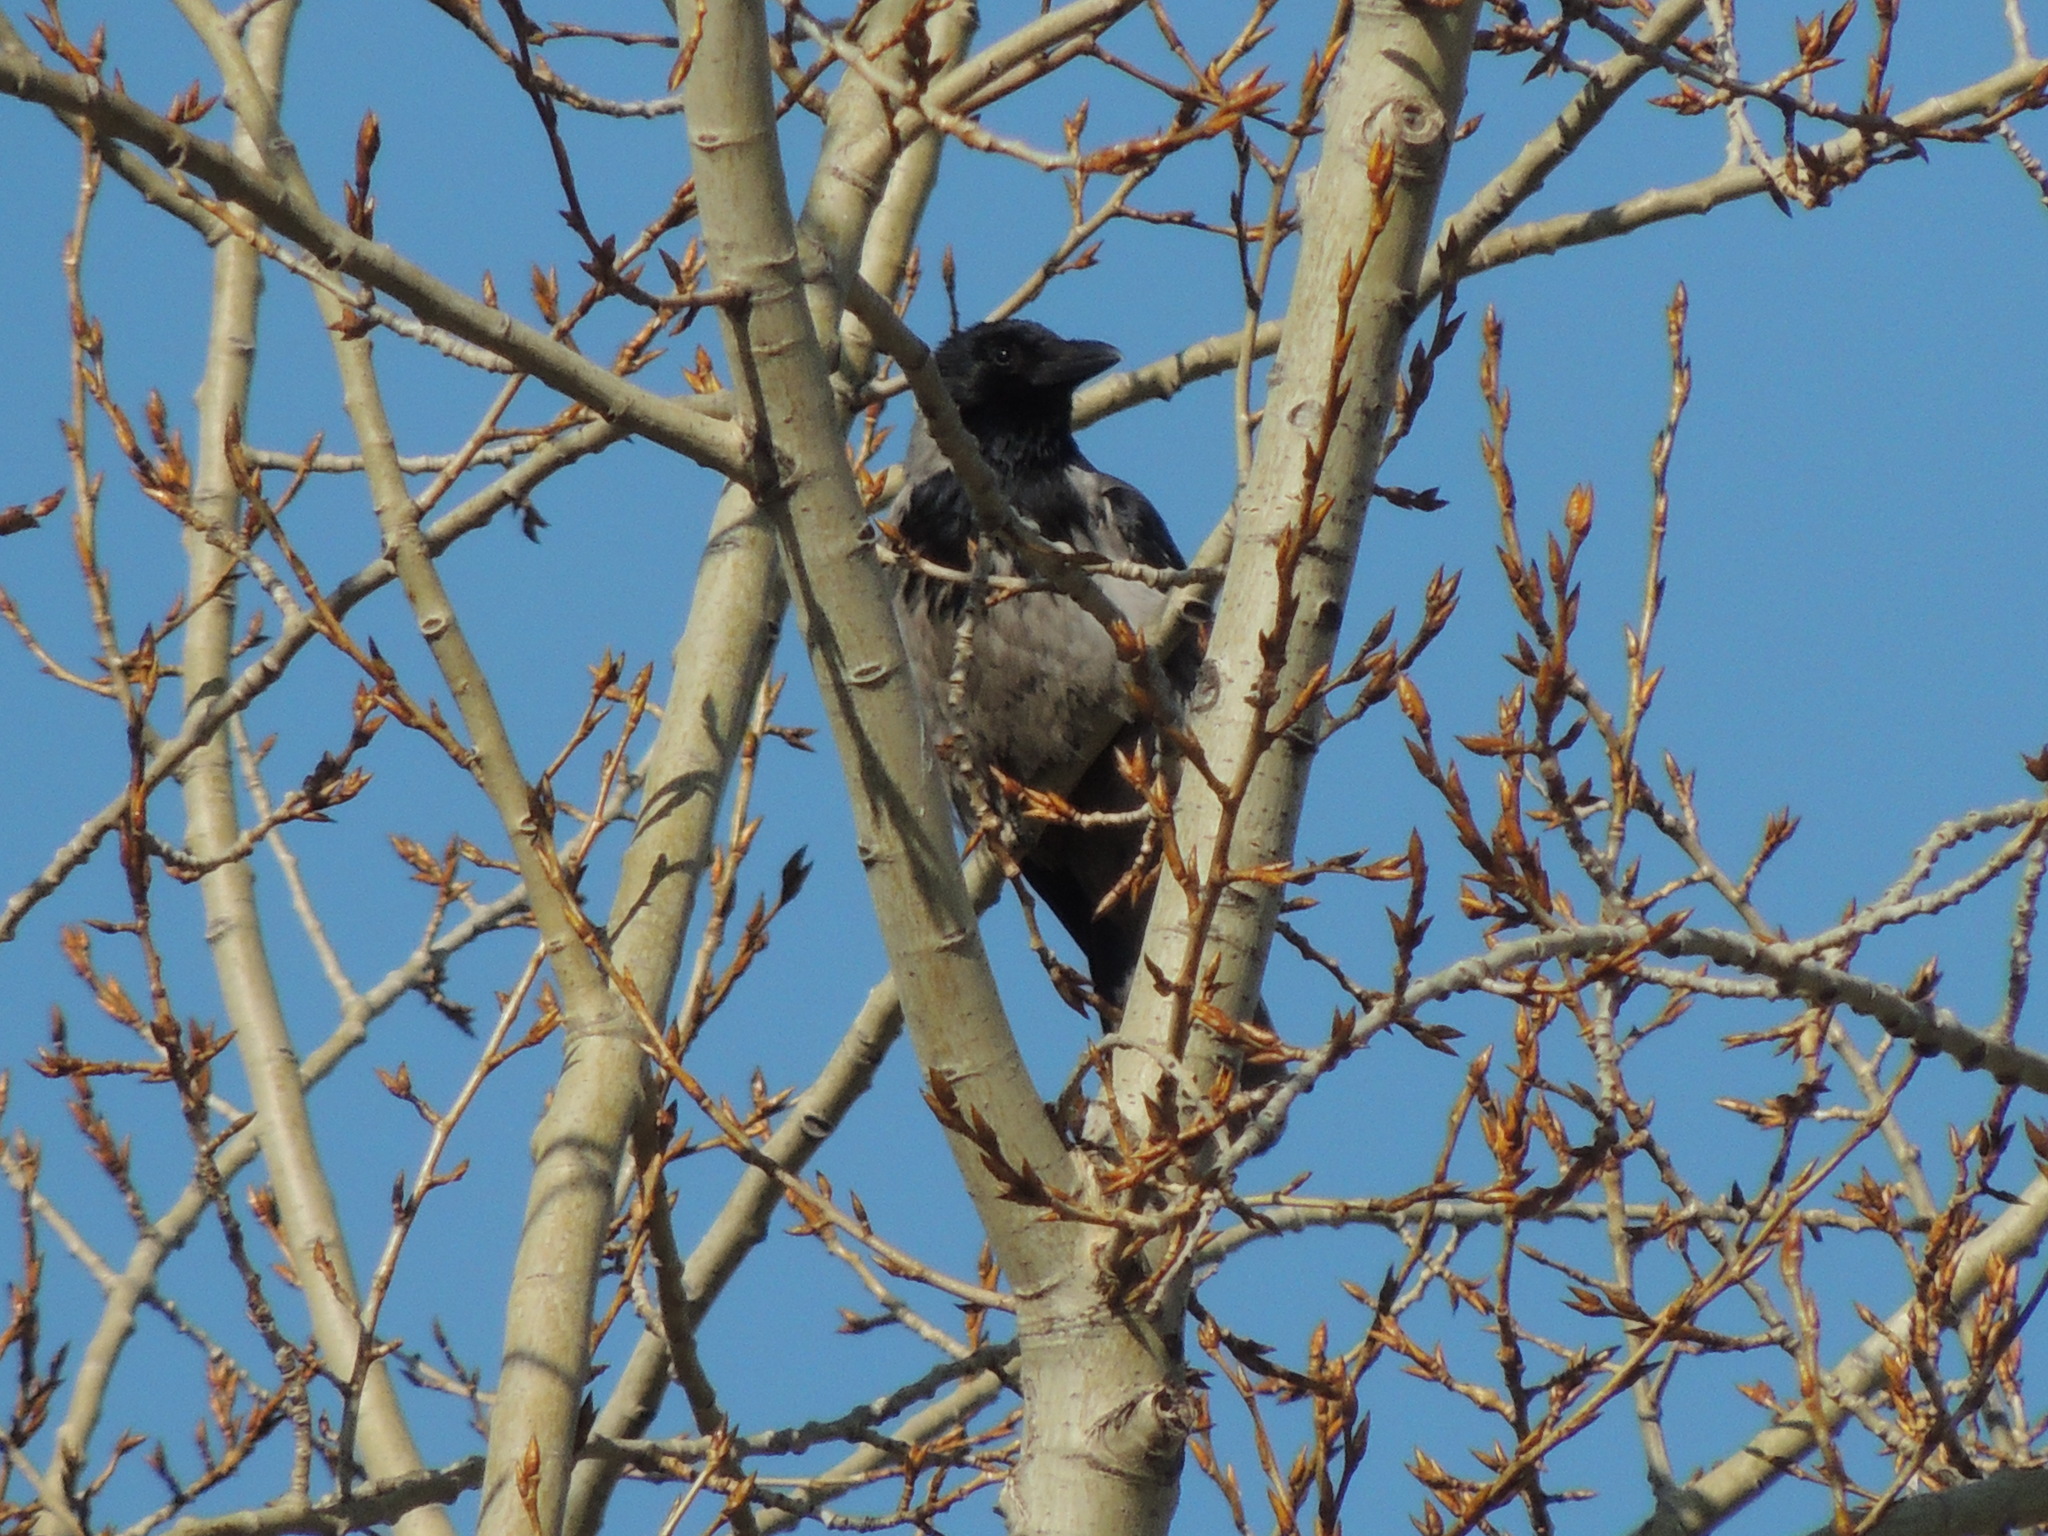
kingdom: Animalia
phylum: Chordata
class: Aves
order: Passeriformes
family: Corvidae
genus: Corvus
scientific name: Corvus cornix
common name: Hooded crow
